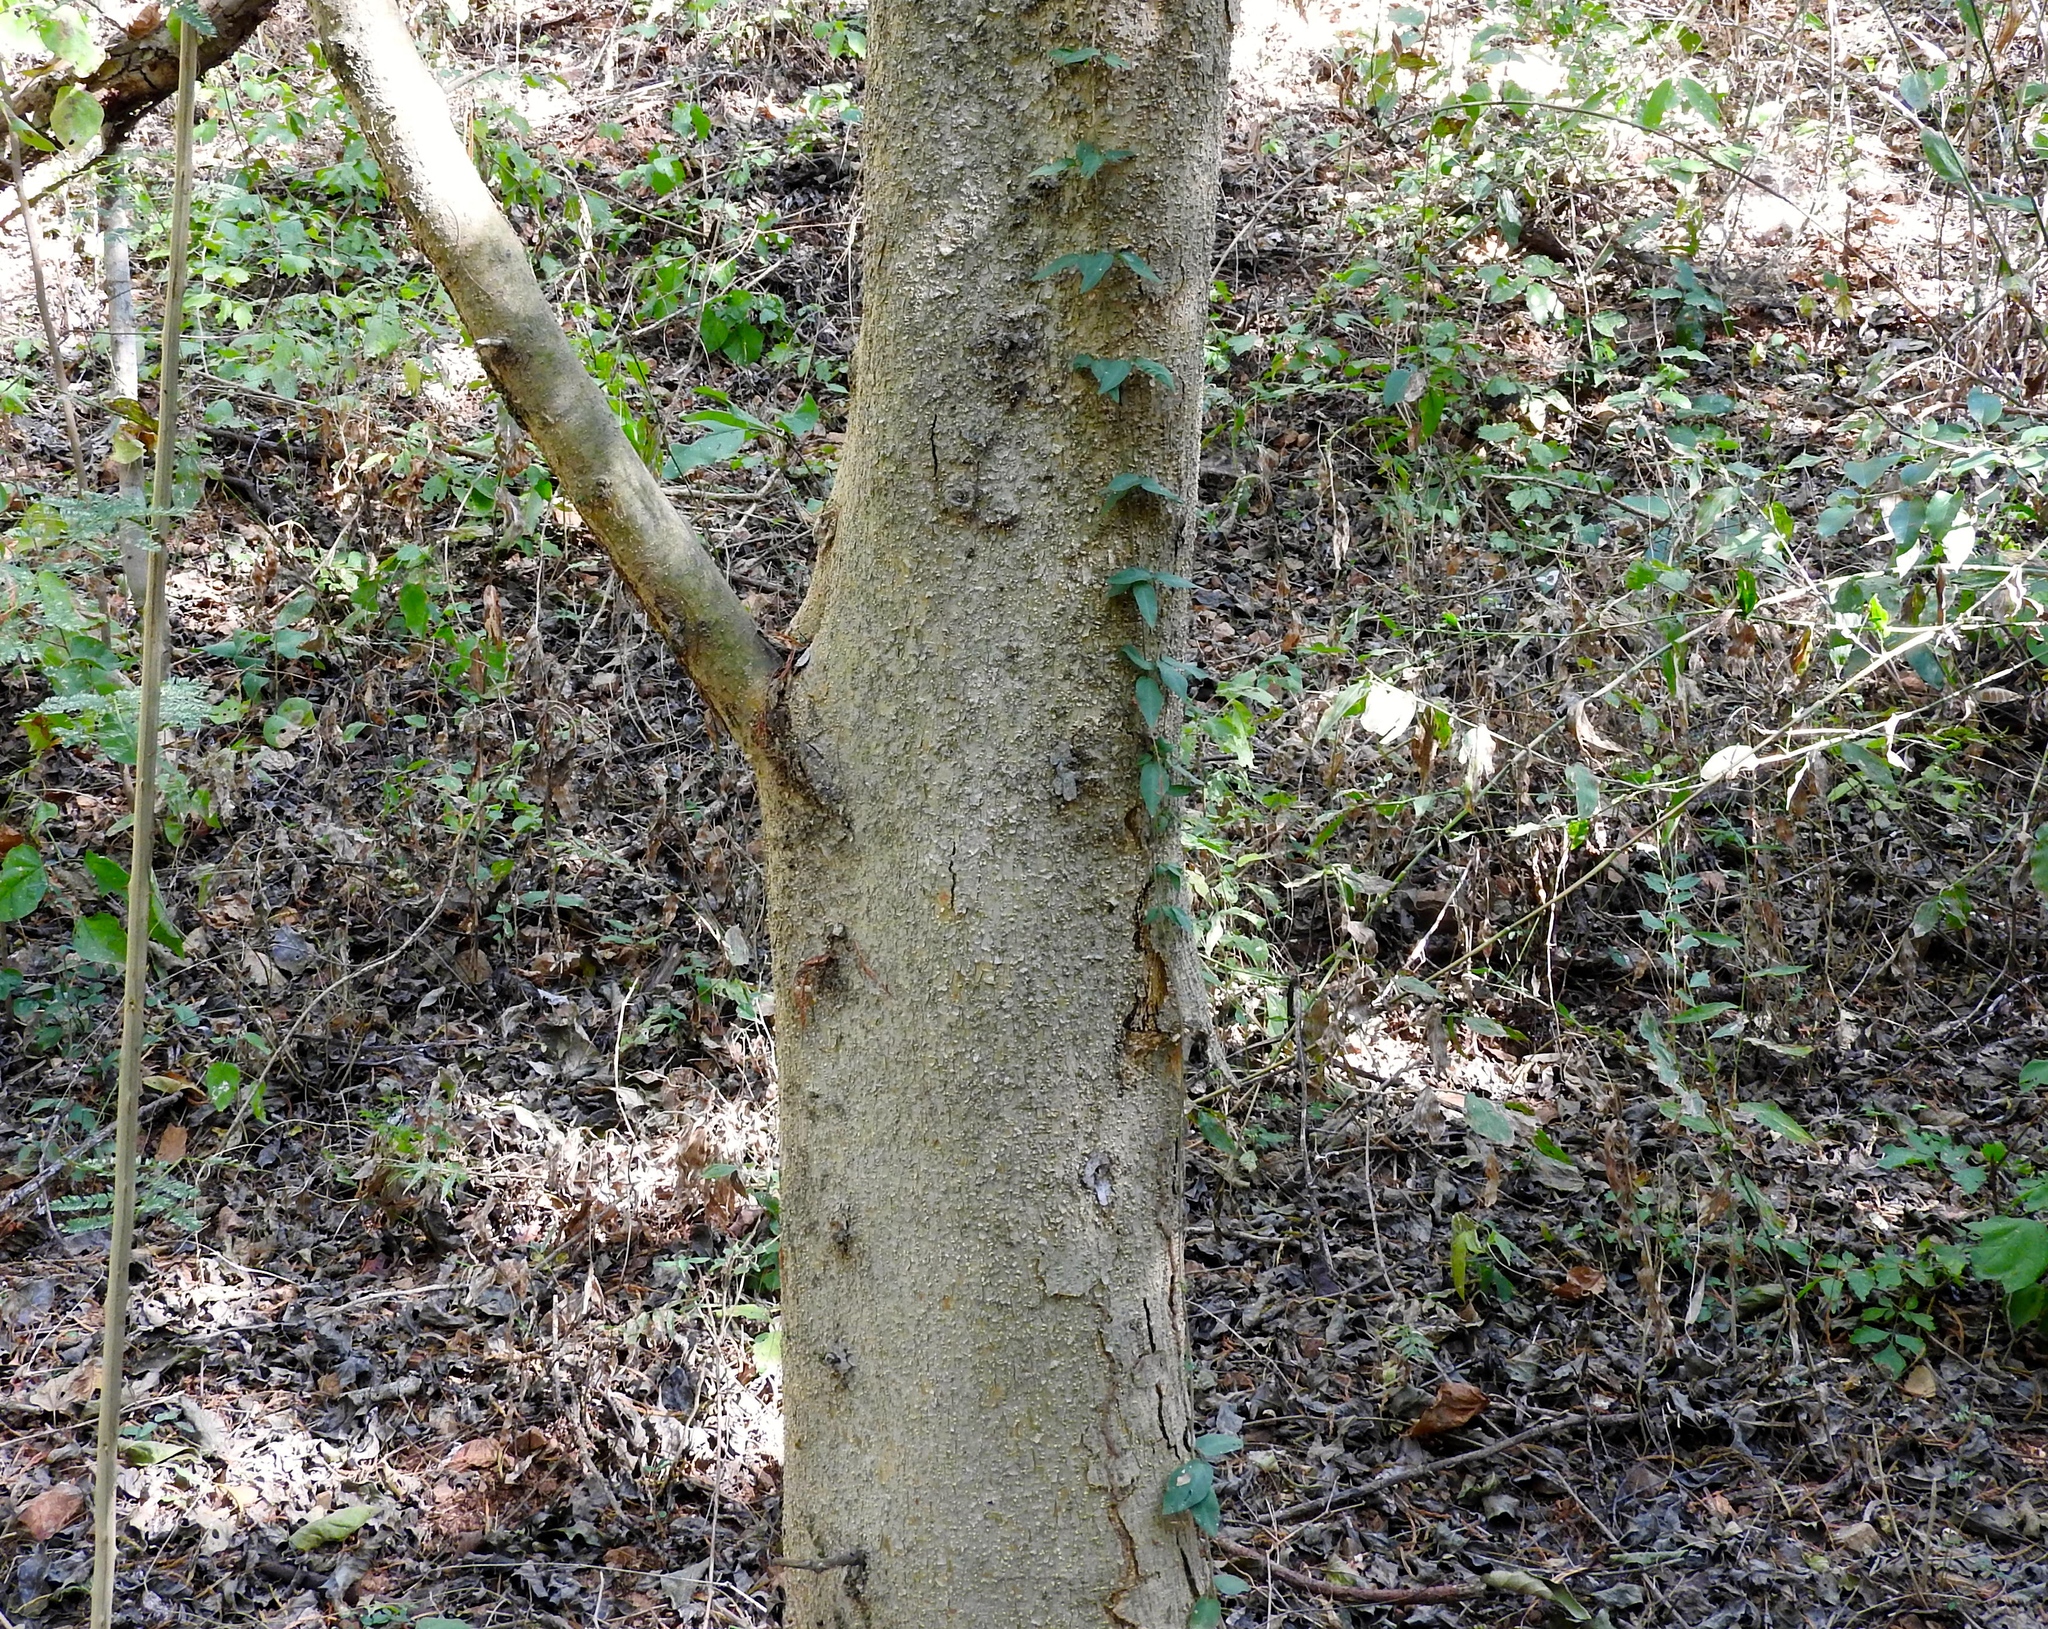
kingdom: Plantae
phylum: Tracheophyta
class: Magnoliopsida
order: Rosales
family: Moraceae
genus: Maclura
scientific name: Maclura tinctoria
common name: Old fustic
